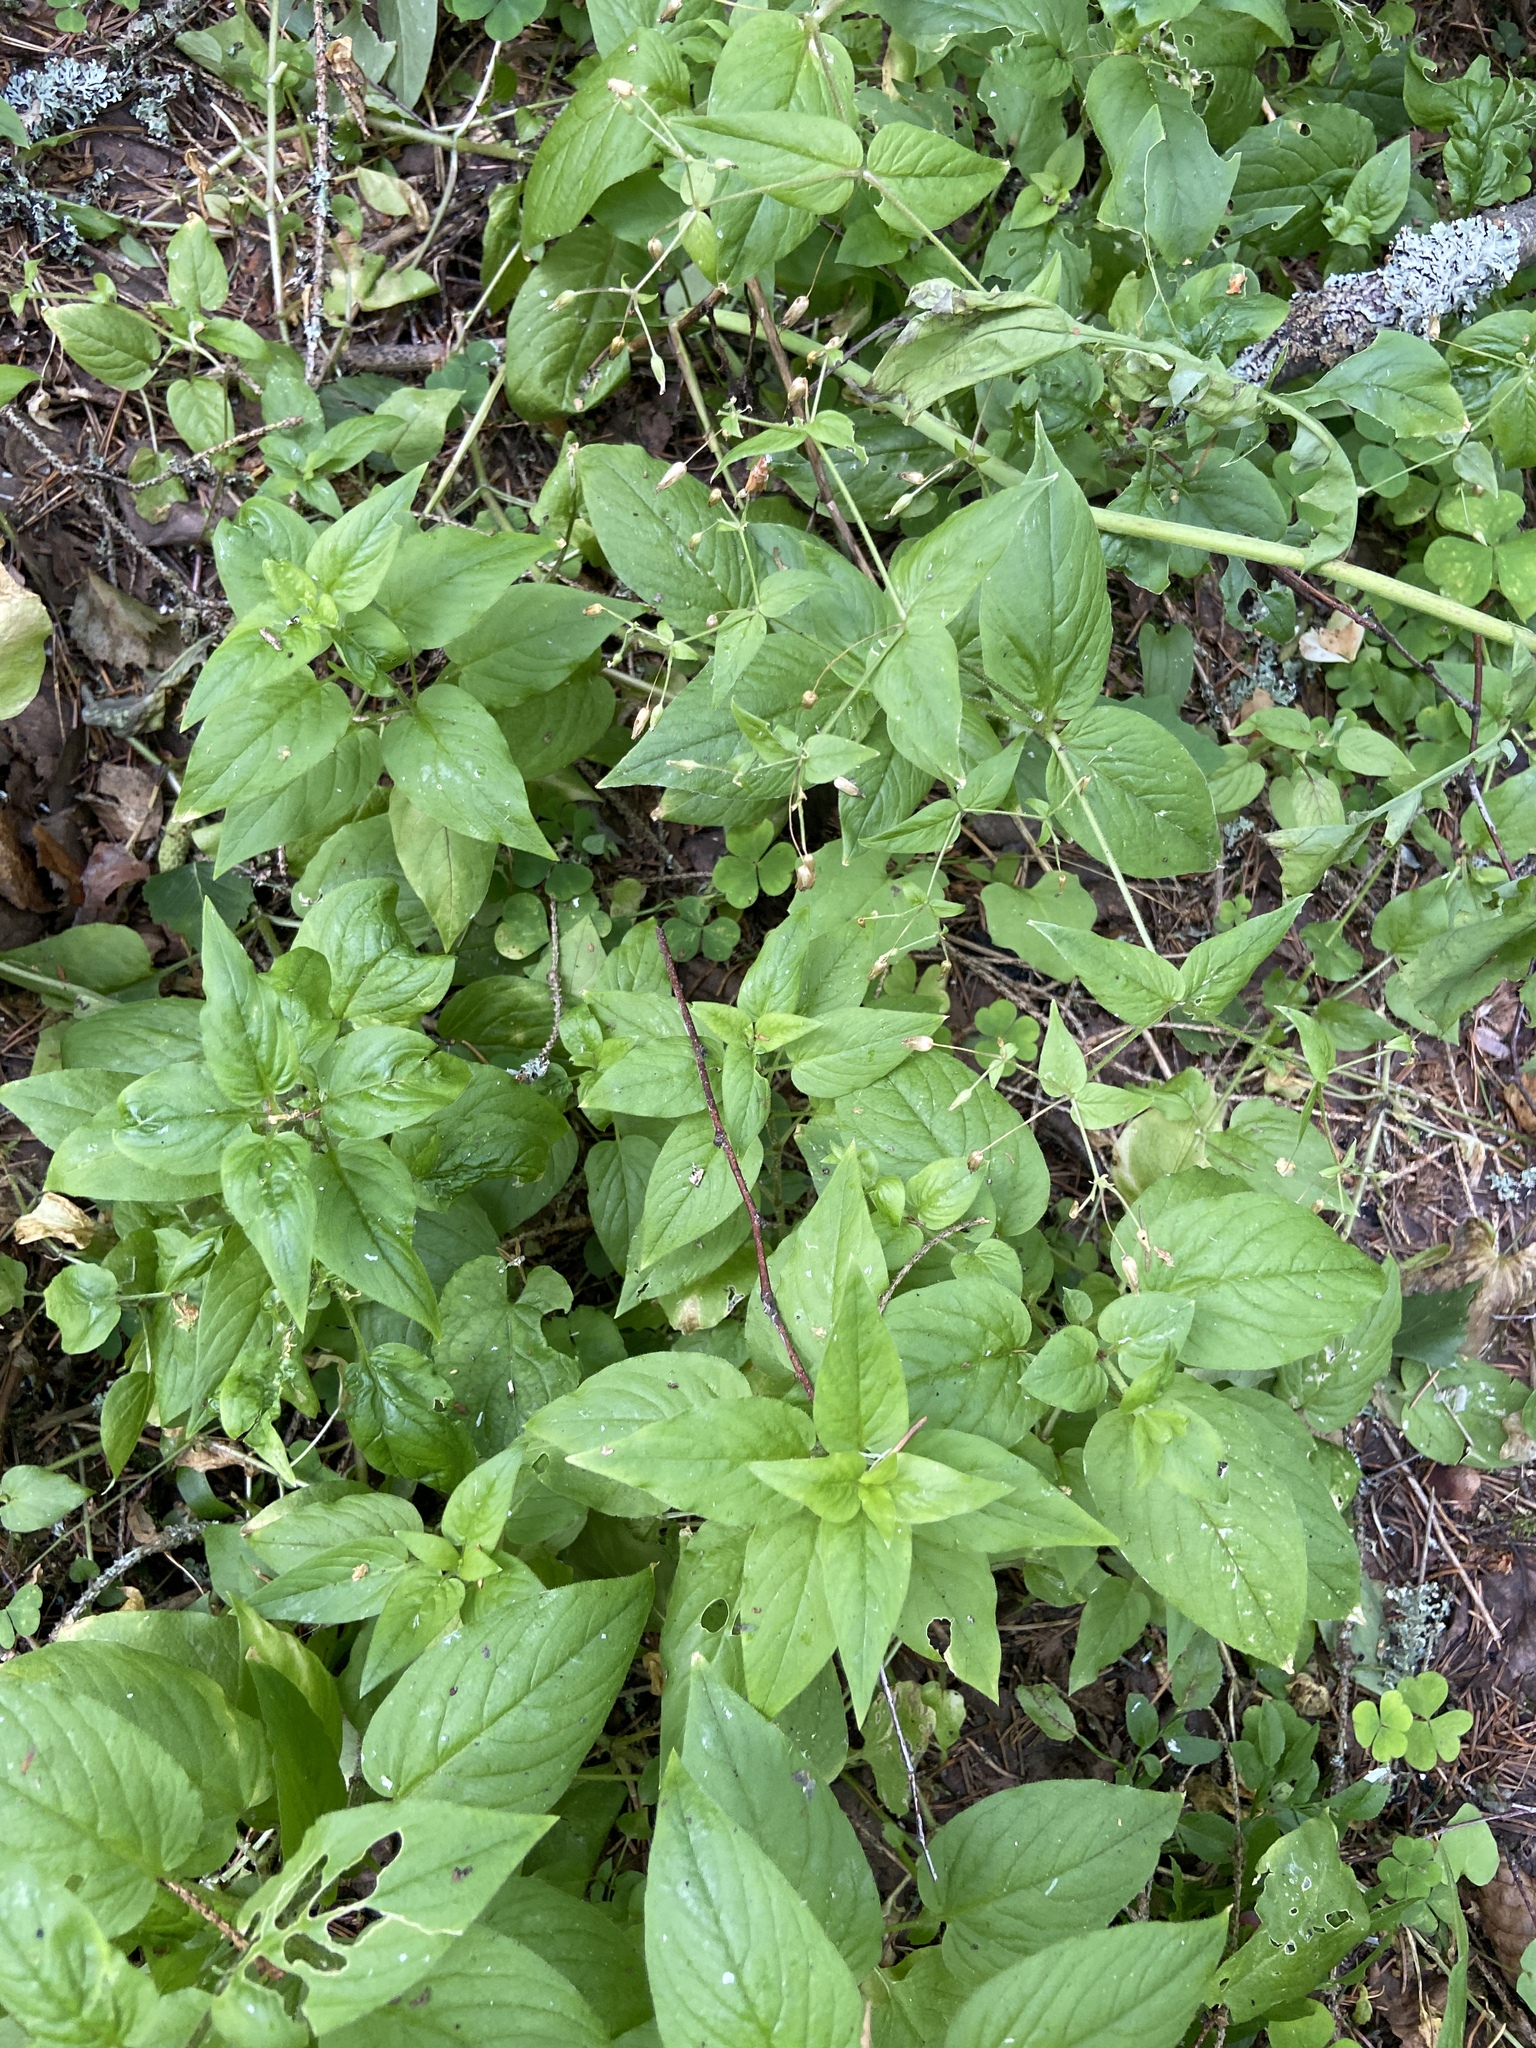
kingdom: Plantae
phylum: Tracheophyta
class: Magnoliopsida
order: Caryophyllales
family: Caryophyllaceae
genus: Stellaria
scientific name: Stellaria nemorum
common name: Wood stitchwort
